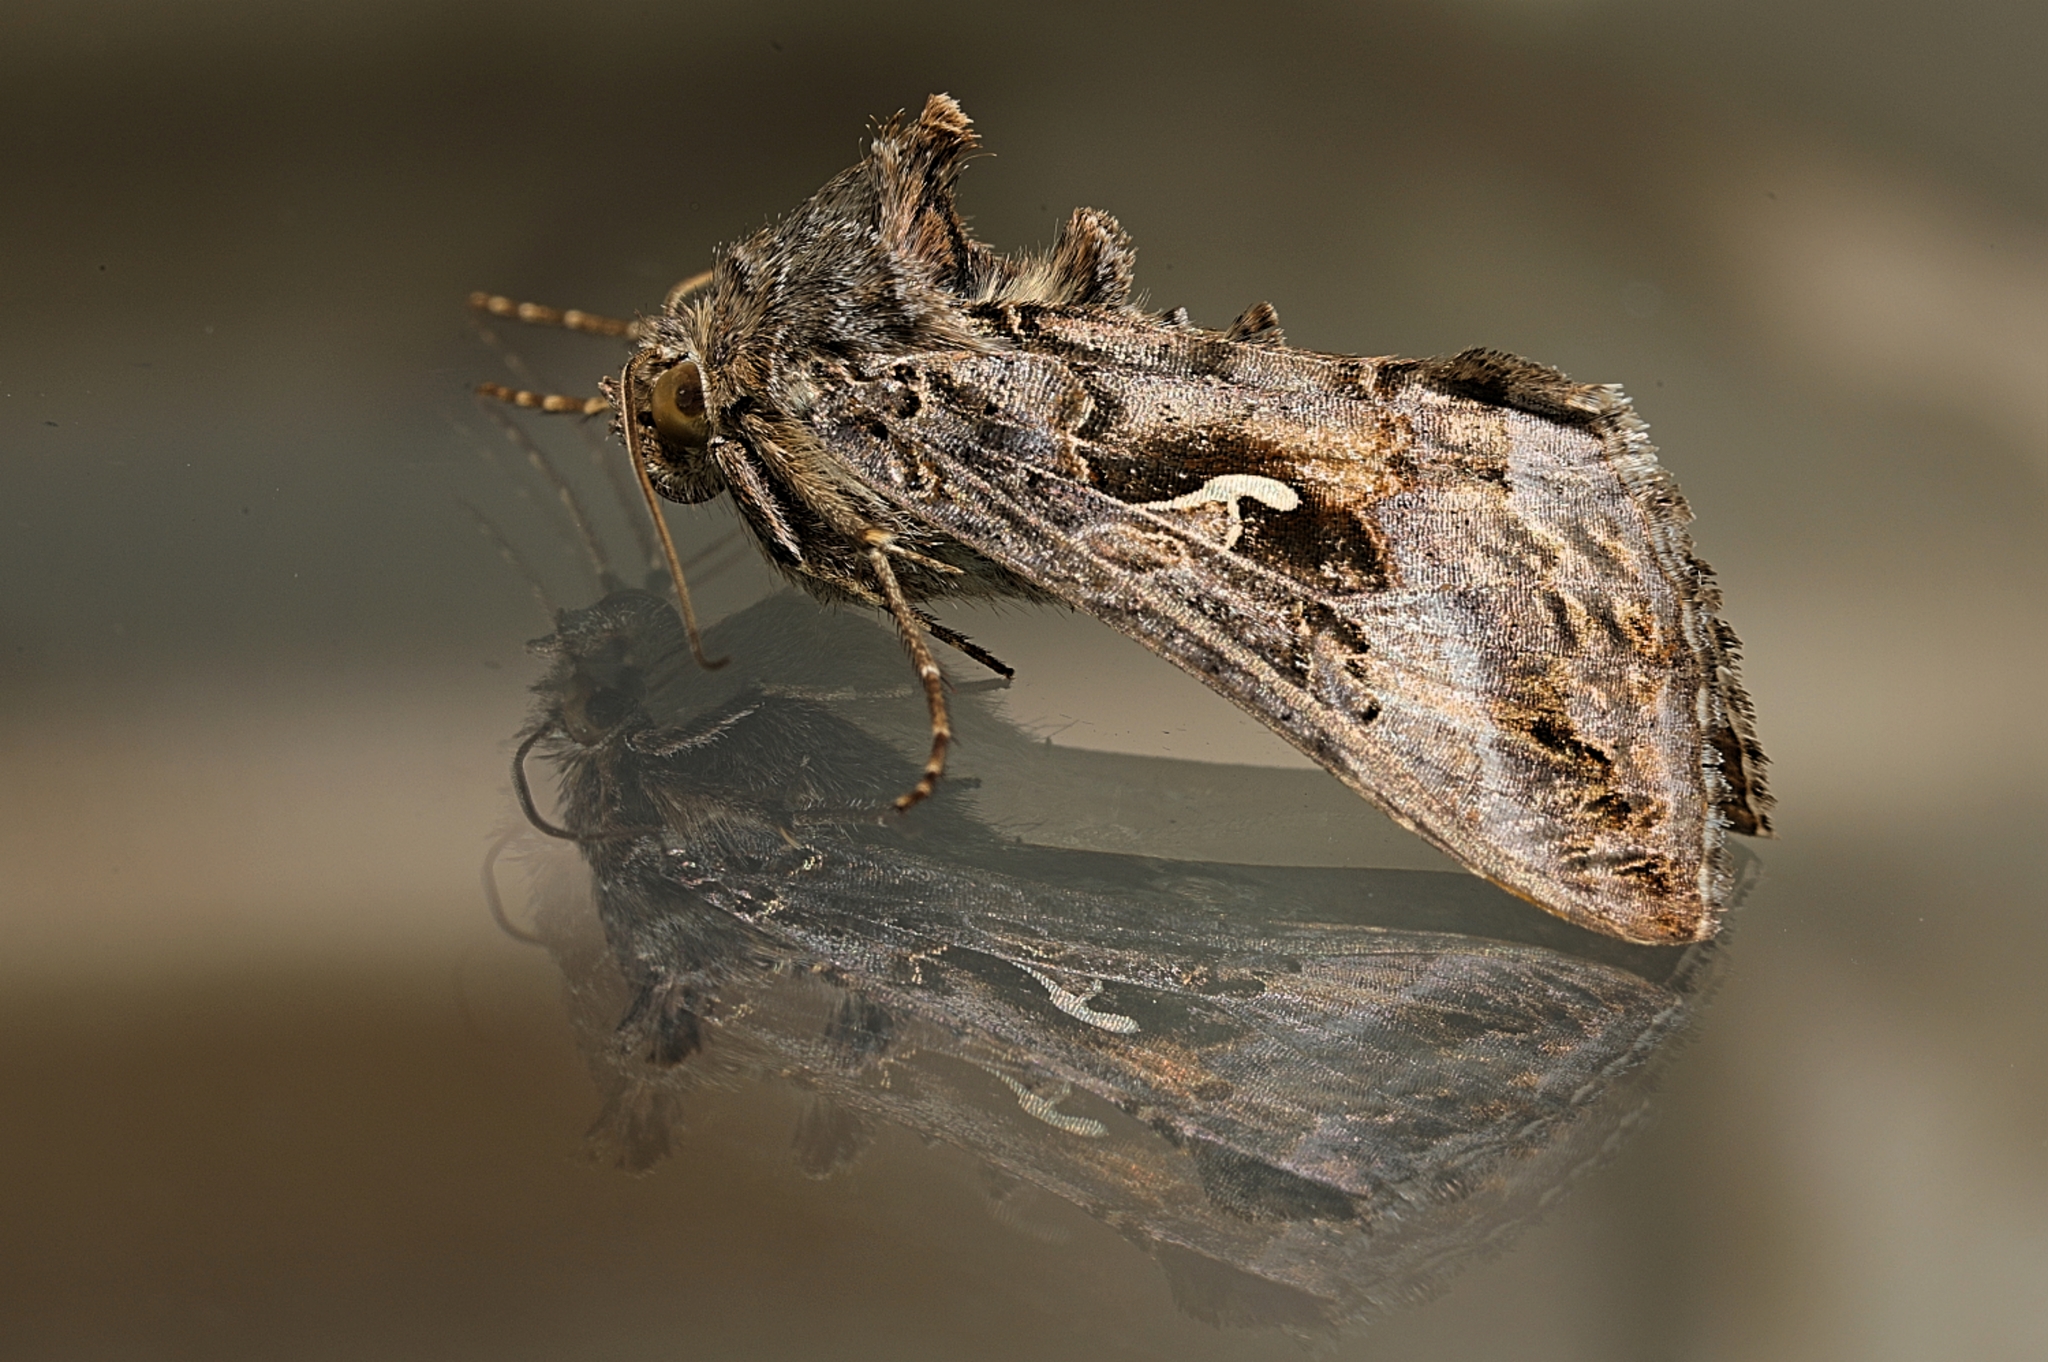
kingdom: Animalia
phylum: Arthropoda
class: Insecta
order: Lepidoptera
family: Noctuidae
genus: Autographa
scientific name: Autographa gamma
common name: Silver y
